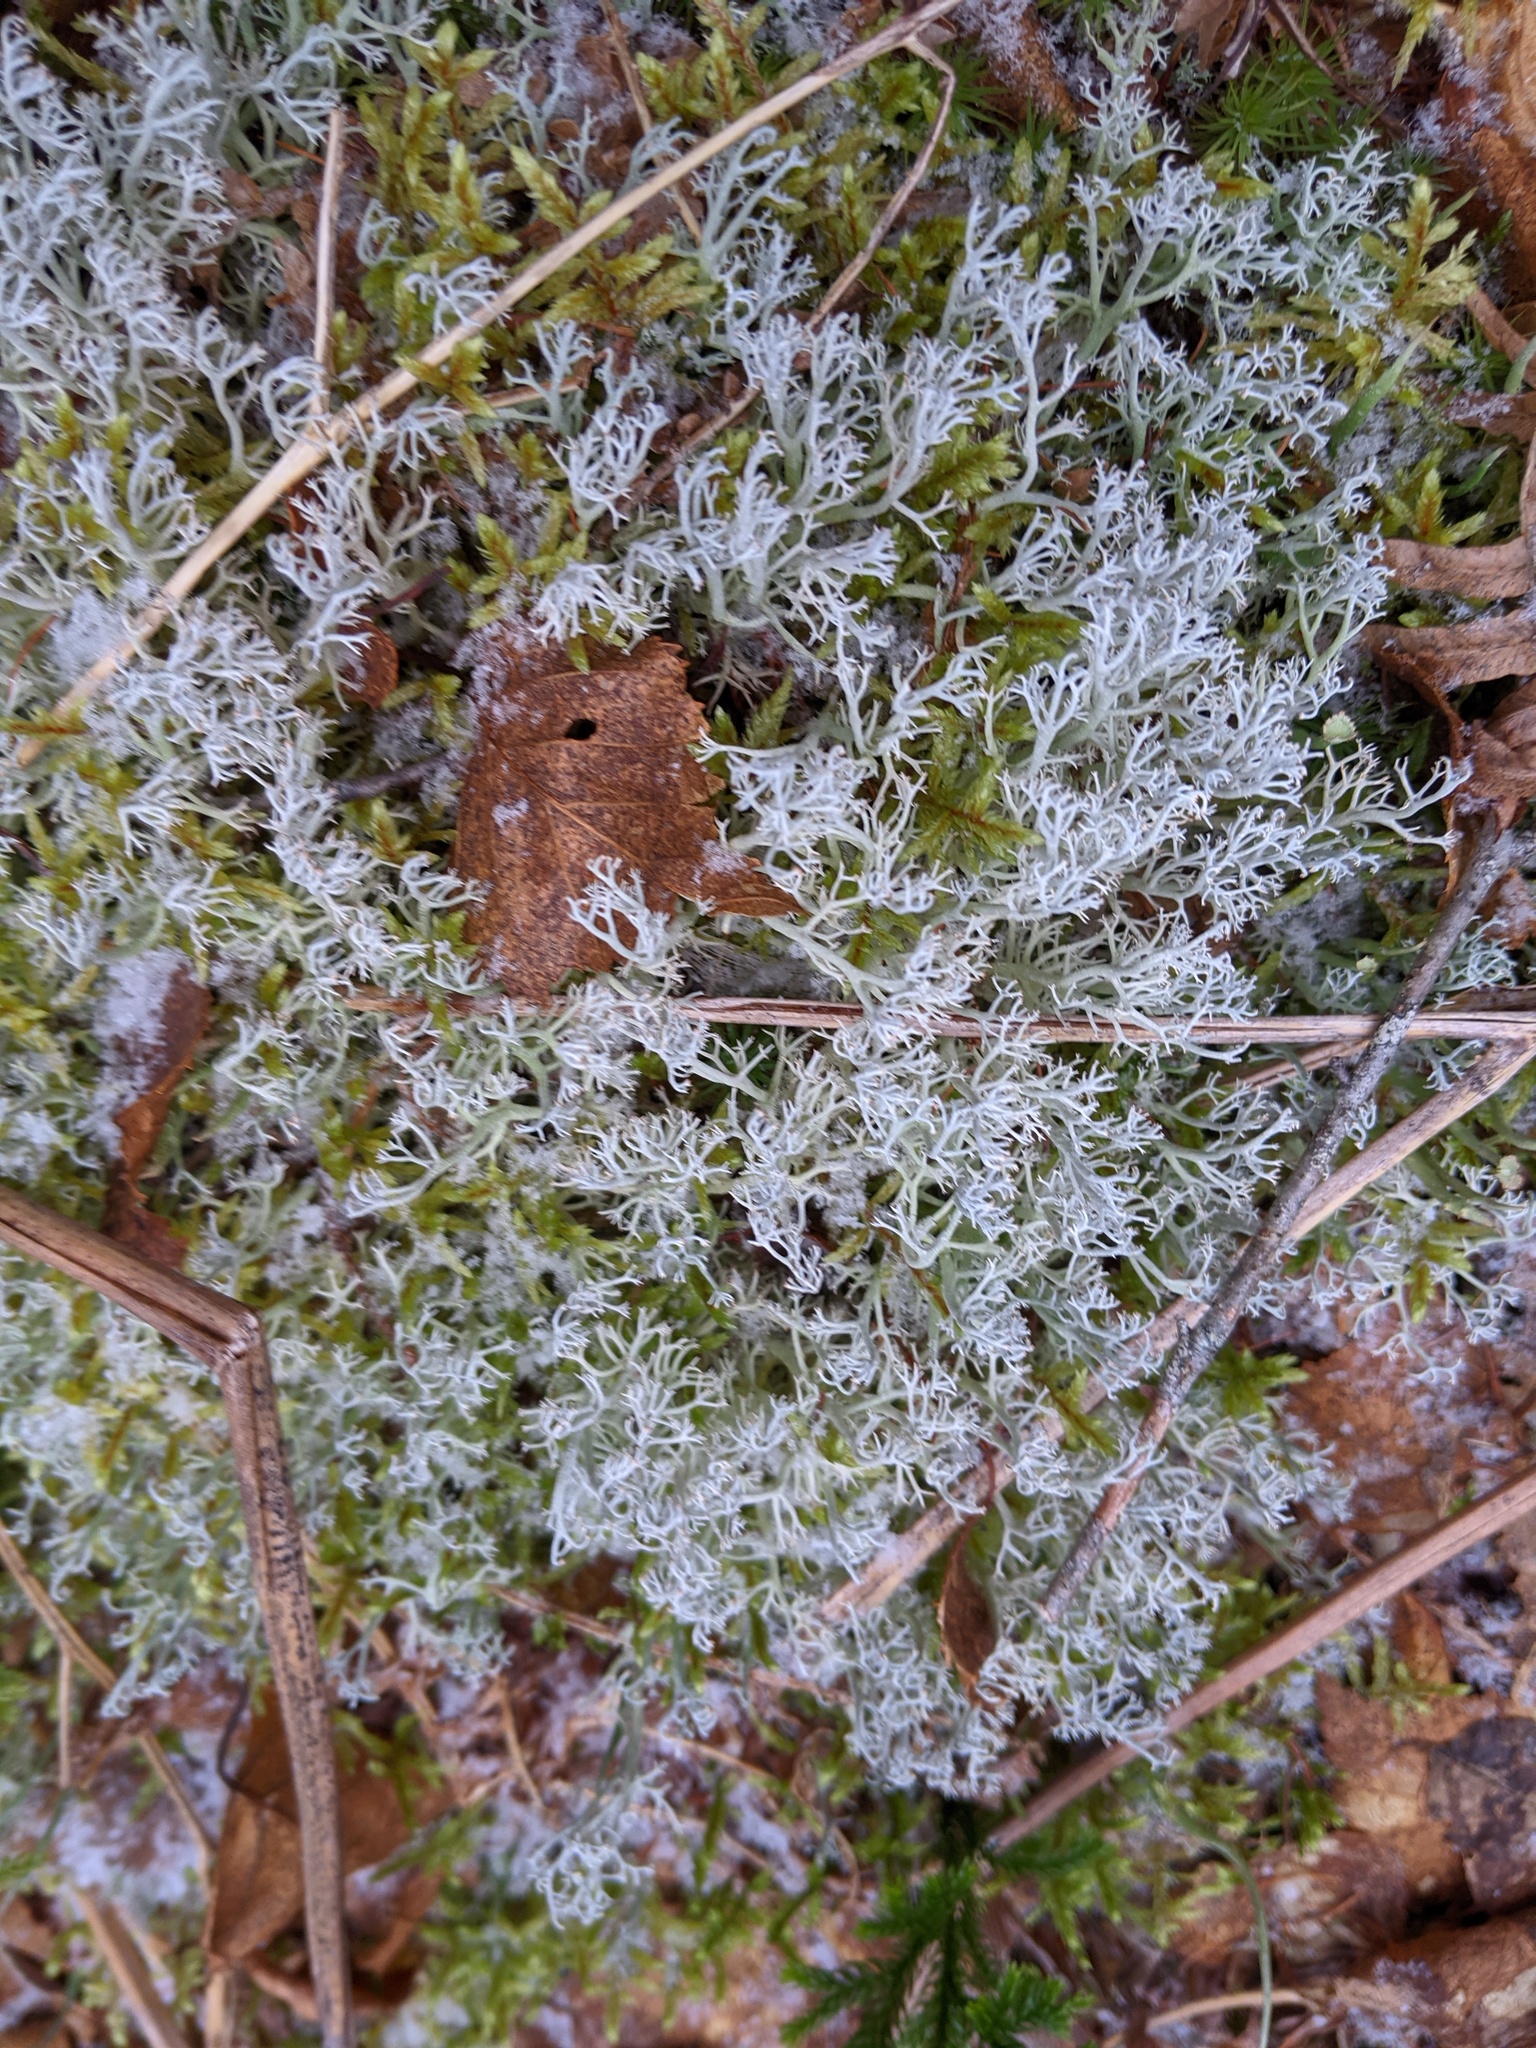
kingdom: Fungi
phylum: Ascomycota
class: Lecanoromycetes
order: Lecanorales
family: Cladoniaceae
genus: Cladonia
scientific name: Cladonia rangiferina
